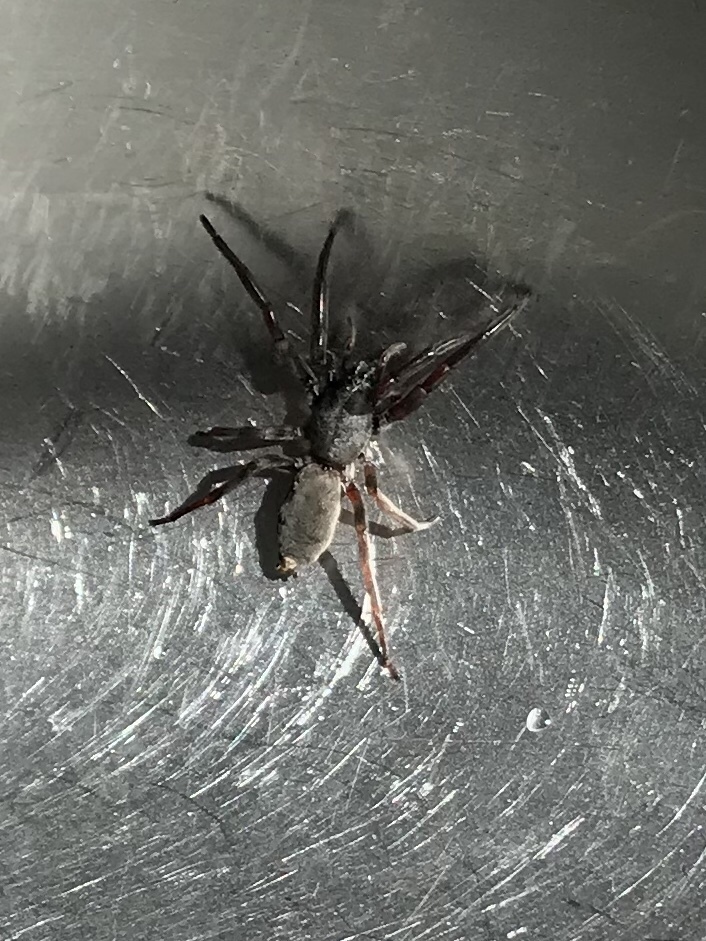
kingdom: Animalia
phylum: Arthropoda
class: Arachnida
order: Araneae
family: Lamponidae
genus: Lampona
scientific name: Lampona cylindrata
